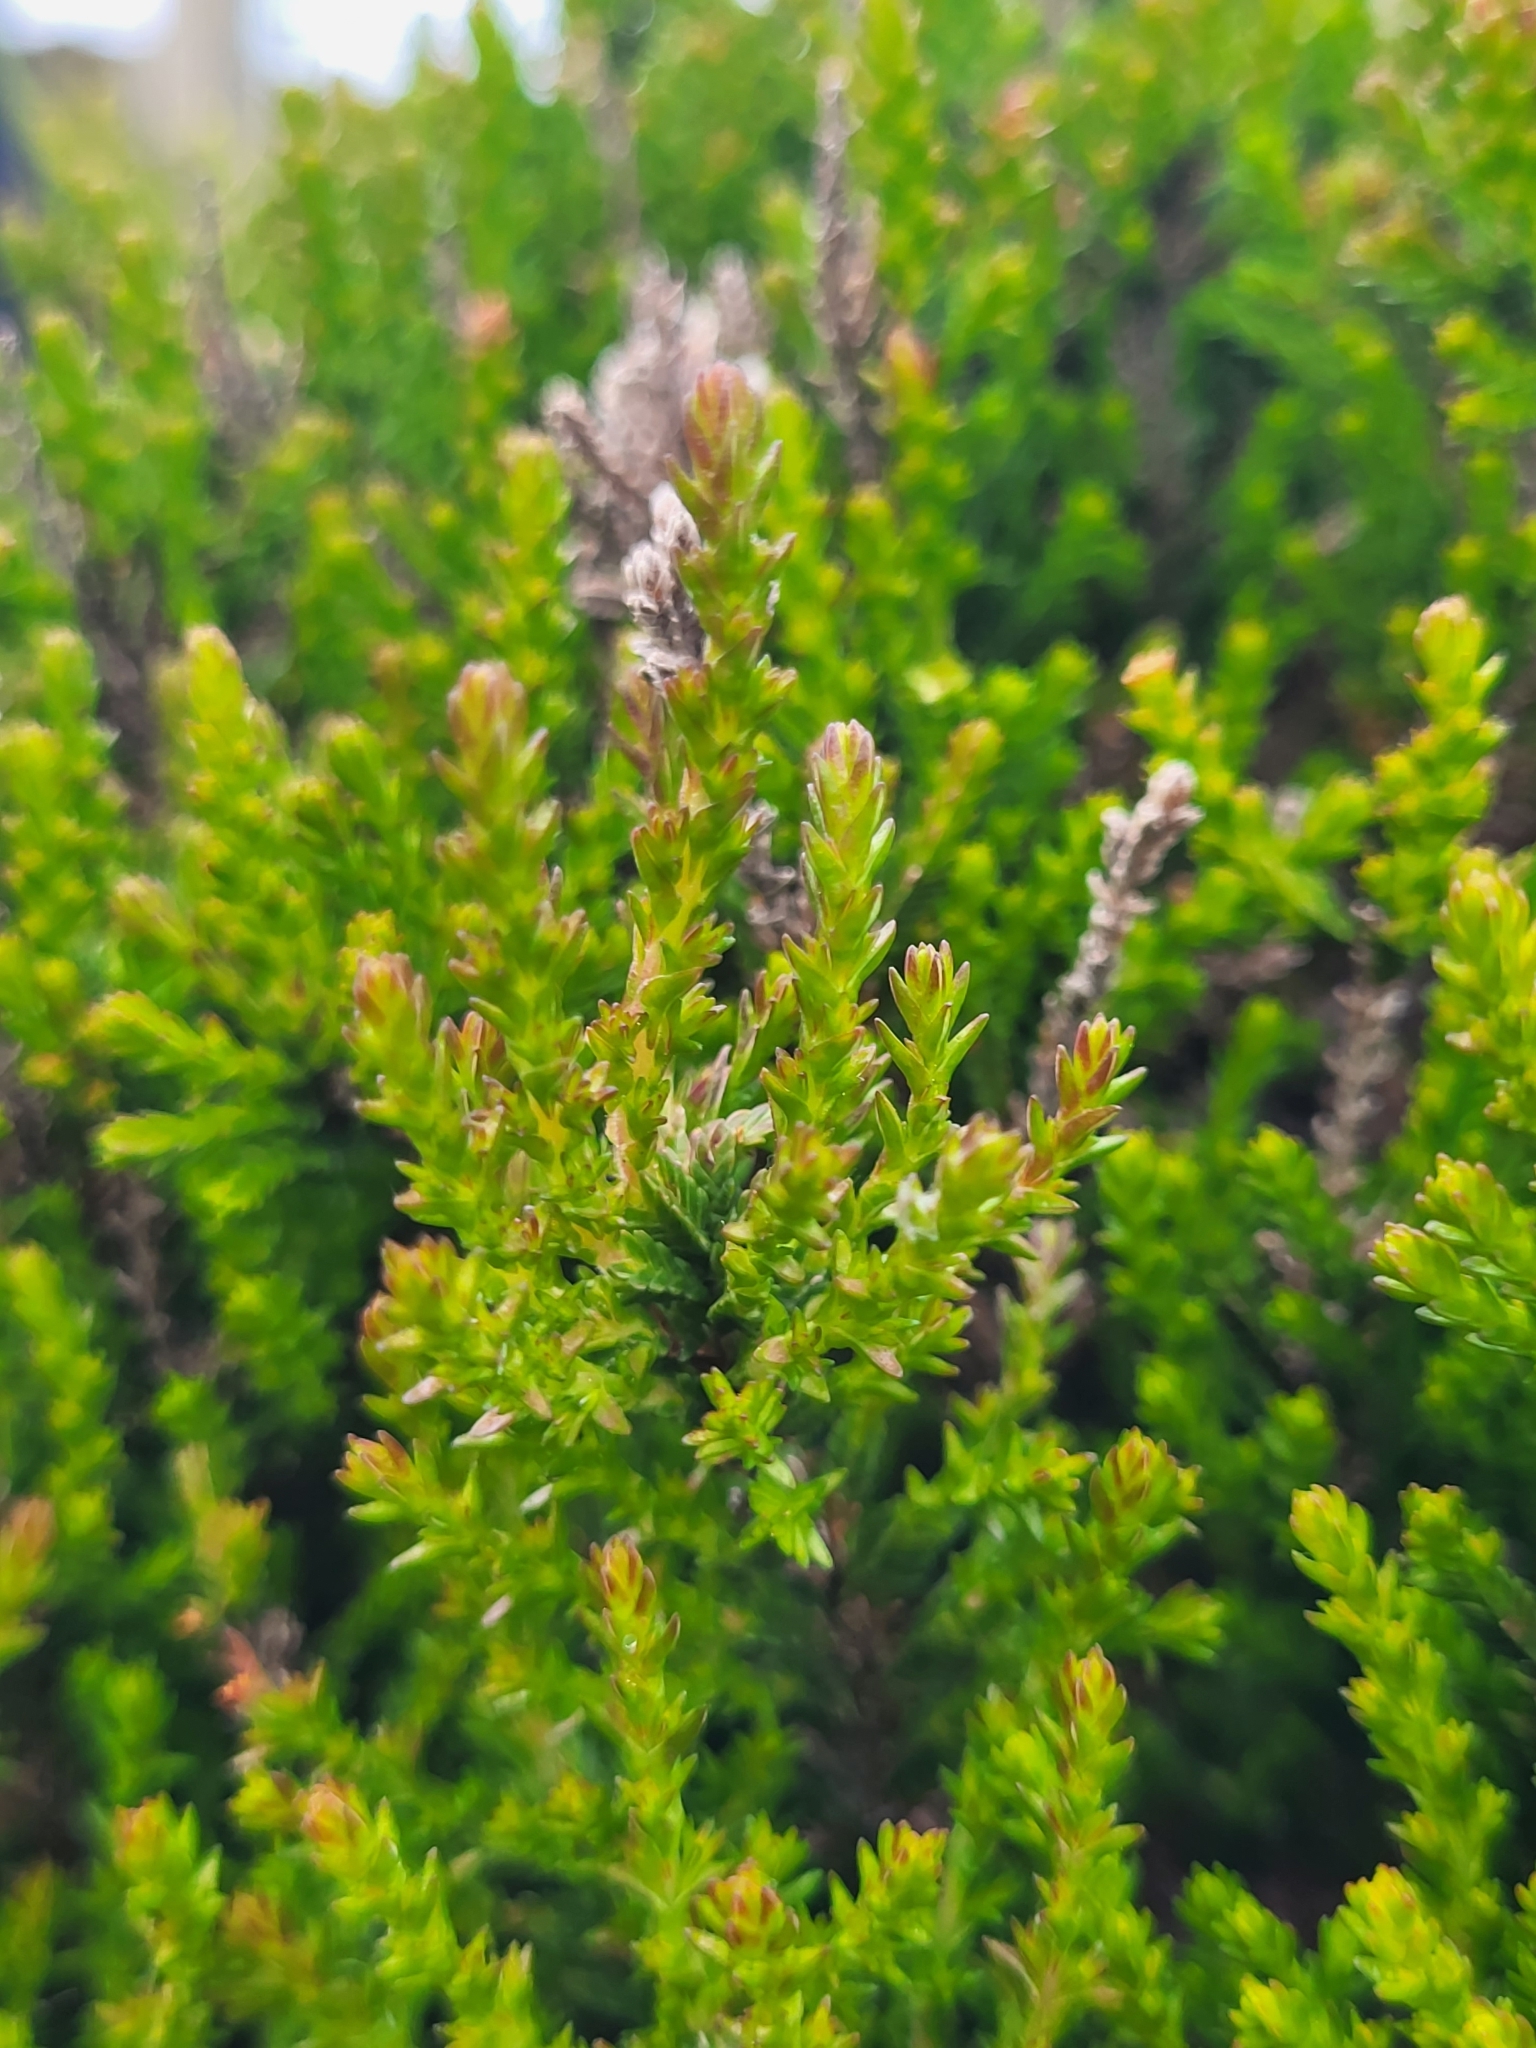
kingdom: Plantae
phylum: Tracheophyta
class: Magnoliopsida
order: Ericales
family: Ericaceae
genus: Calluna
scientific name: Calluna vulgaris
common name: Heather
